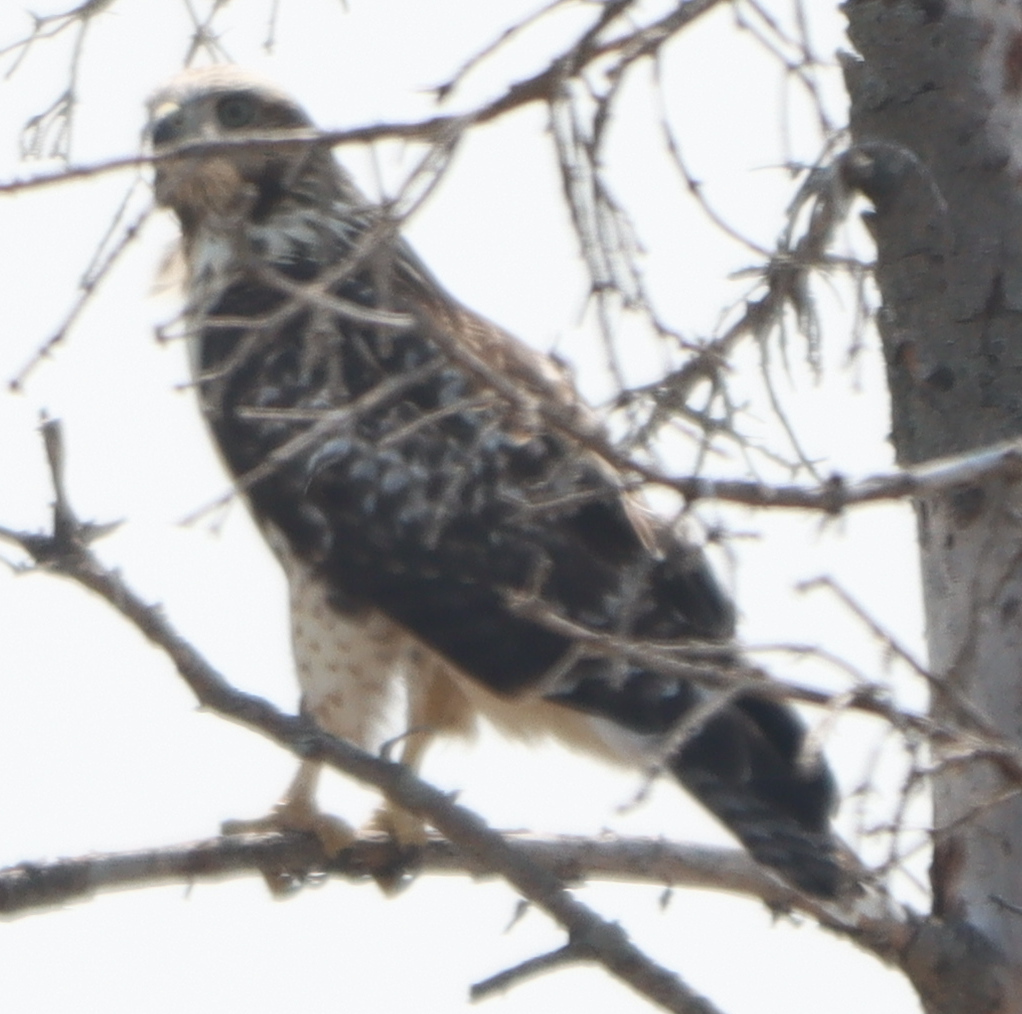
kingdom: Animalia
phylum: Chordata
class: Aves
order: Accipitriformes
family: Accipitridae
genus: Buteo
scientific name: Buteo jamaicensis
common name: Red-tailed hawk
